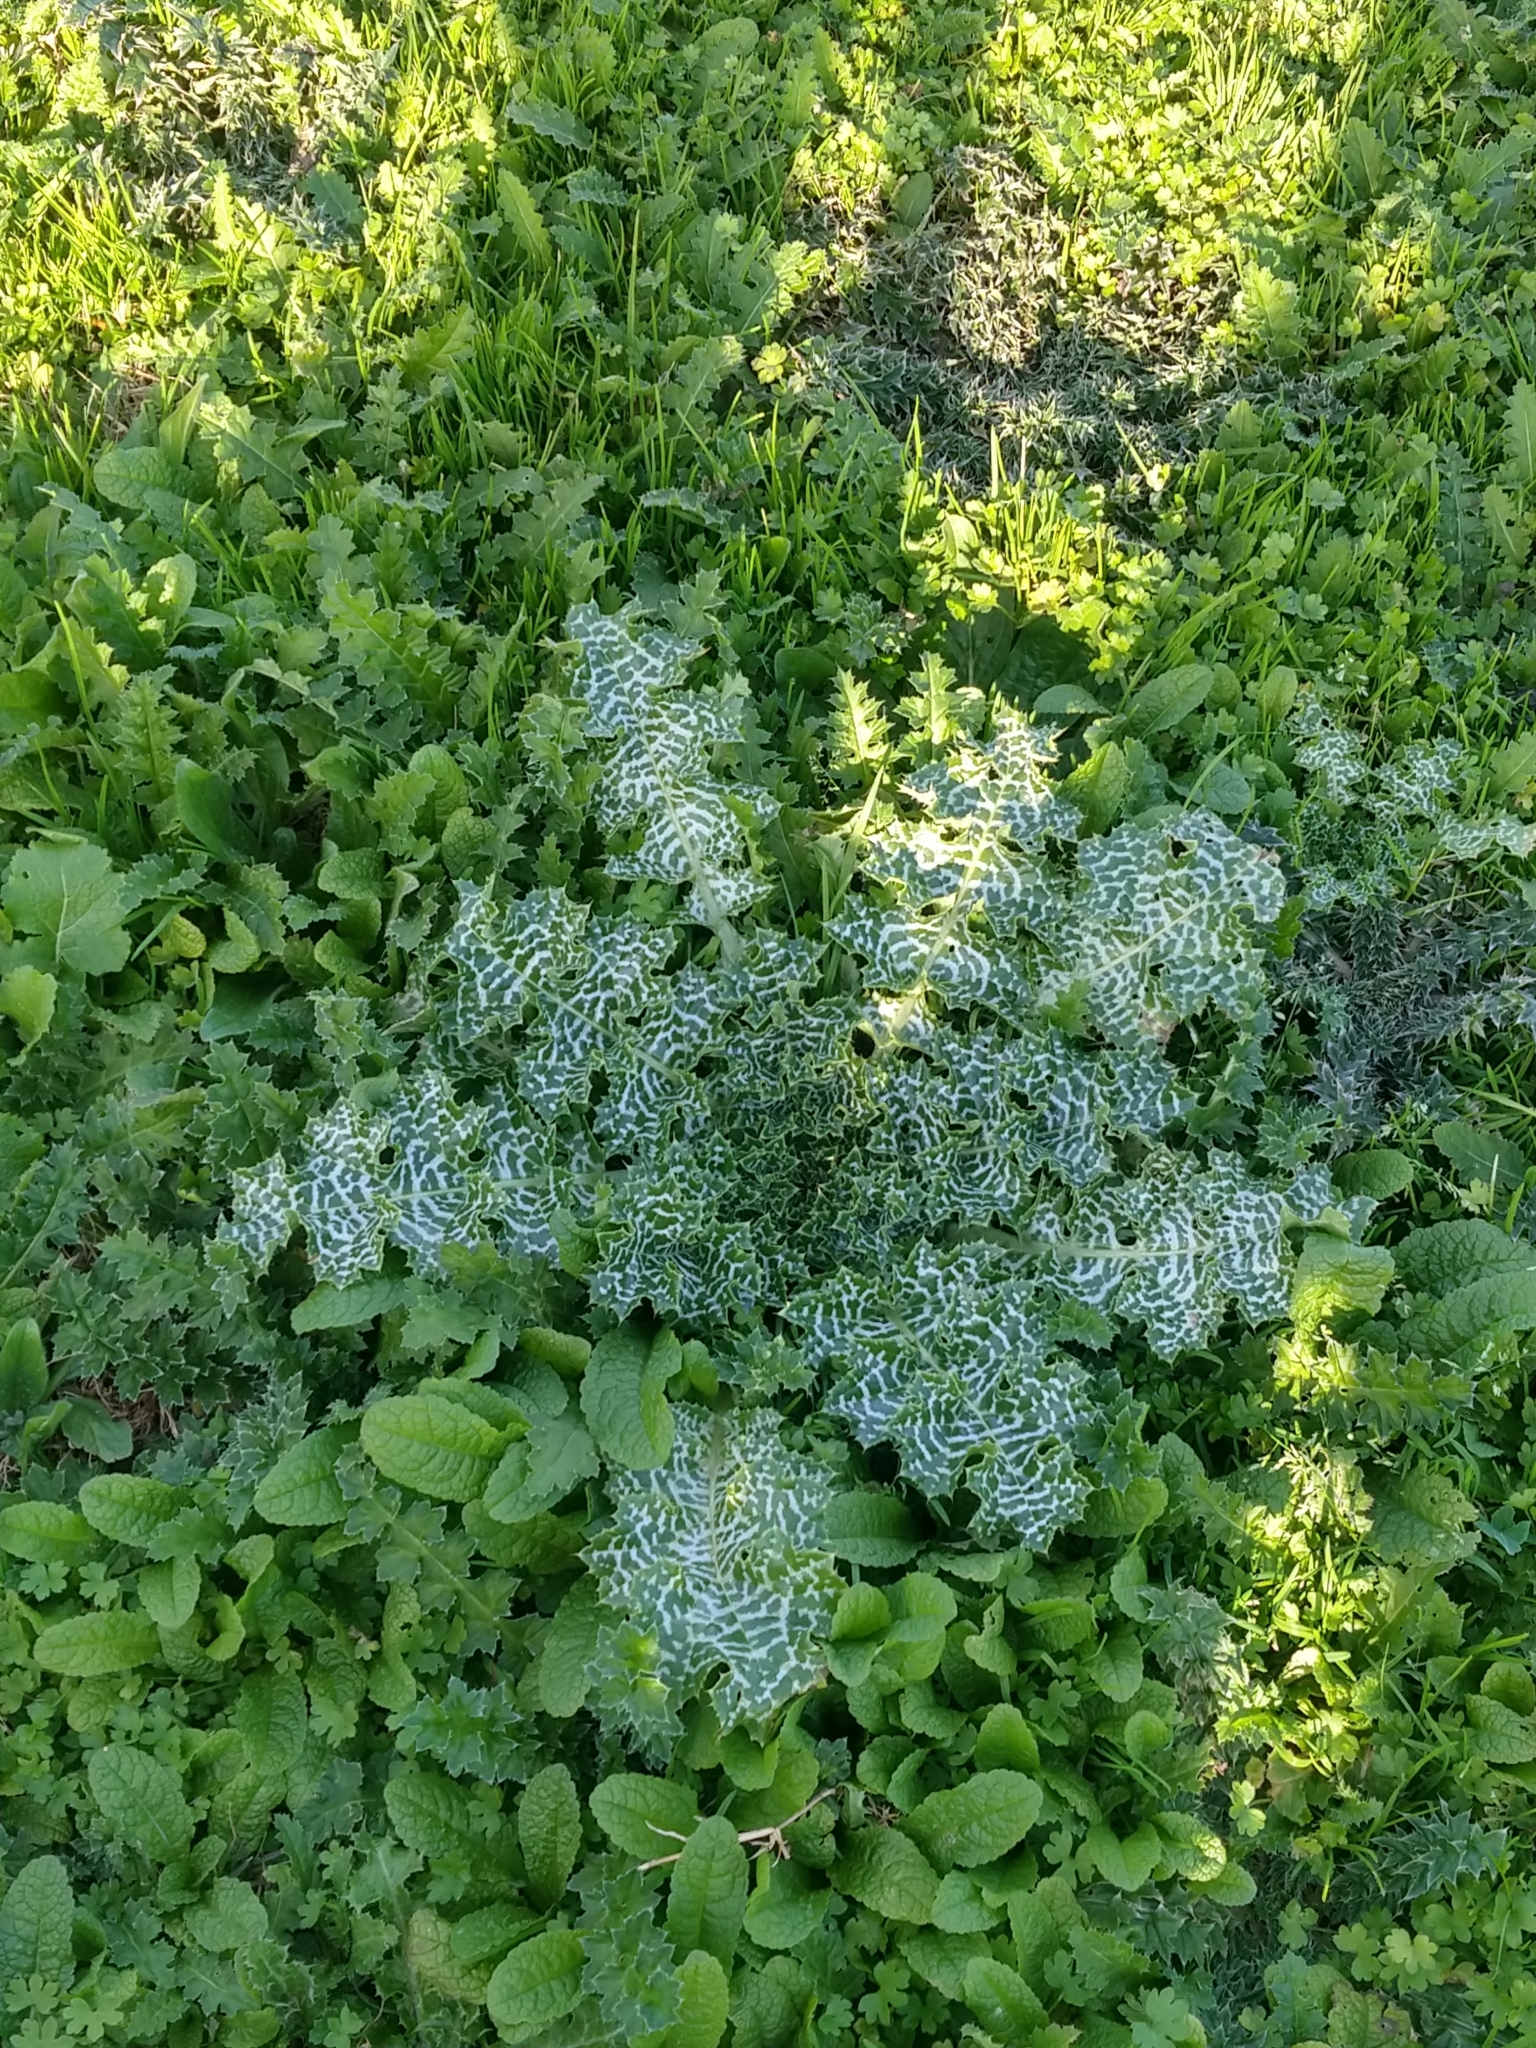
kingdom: Plantae
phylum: Tracheophyta
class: Magnoliopsida
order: Asterales
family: Asteraceae
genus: Silybum
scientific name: Silybum marianum
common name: Milk thistle
